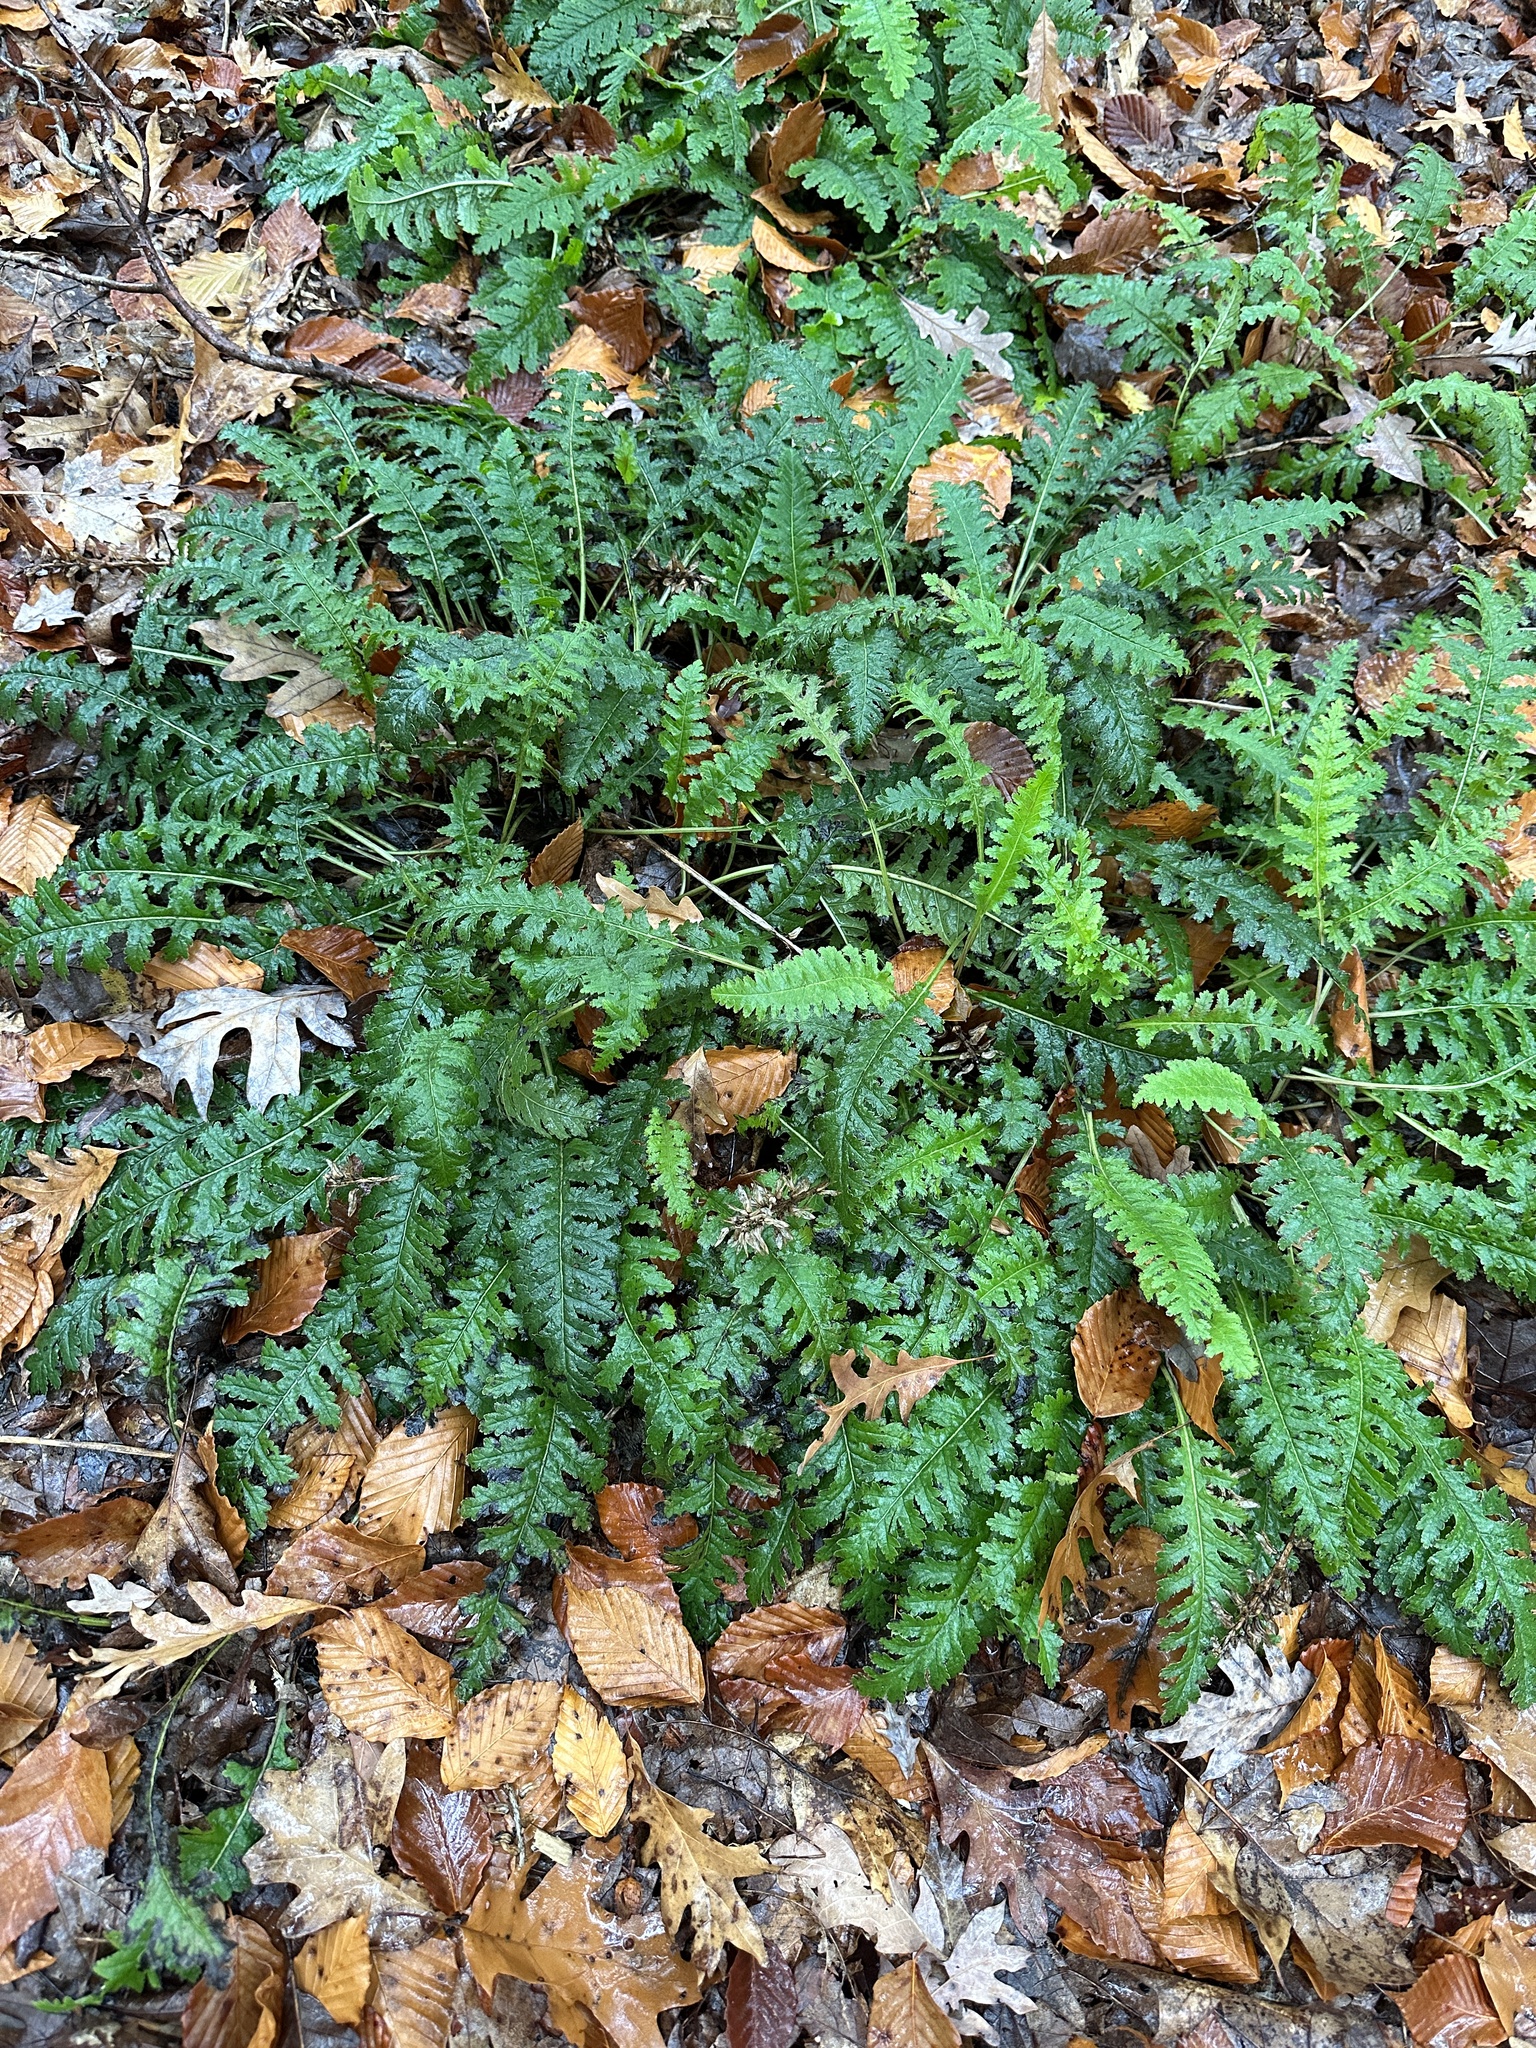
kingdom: Plantae
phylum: Tracheophyta
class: Magnoliopsida
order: Lamiales
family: Orobanchaceae
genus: Pedicularis
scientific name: Pedicularis canadensis
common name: Early lousewort
